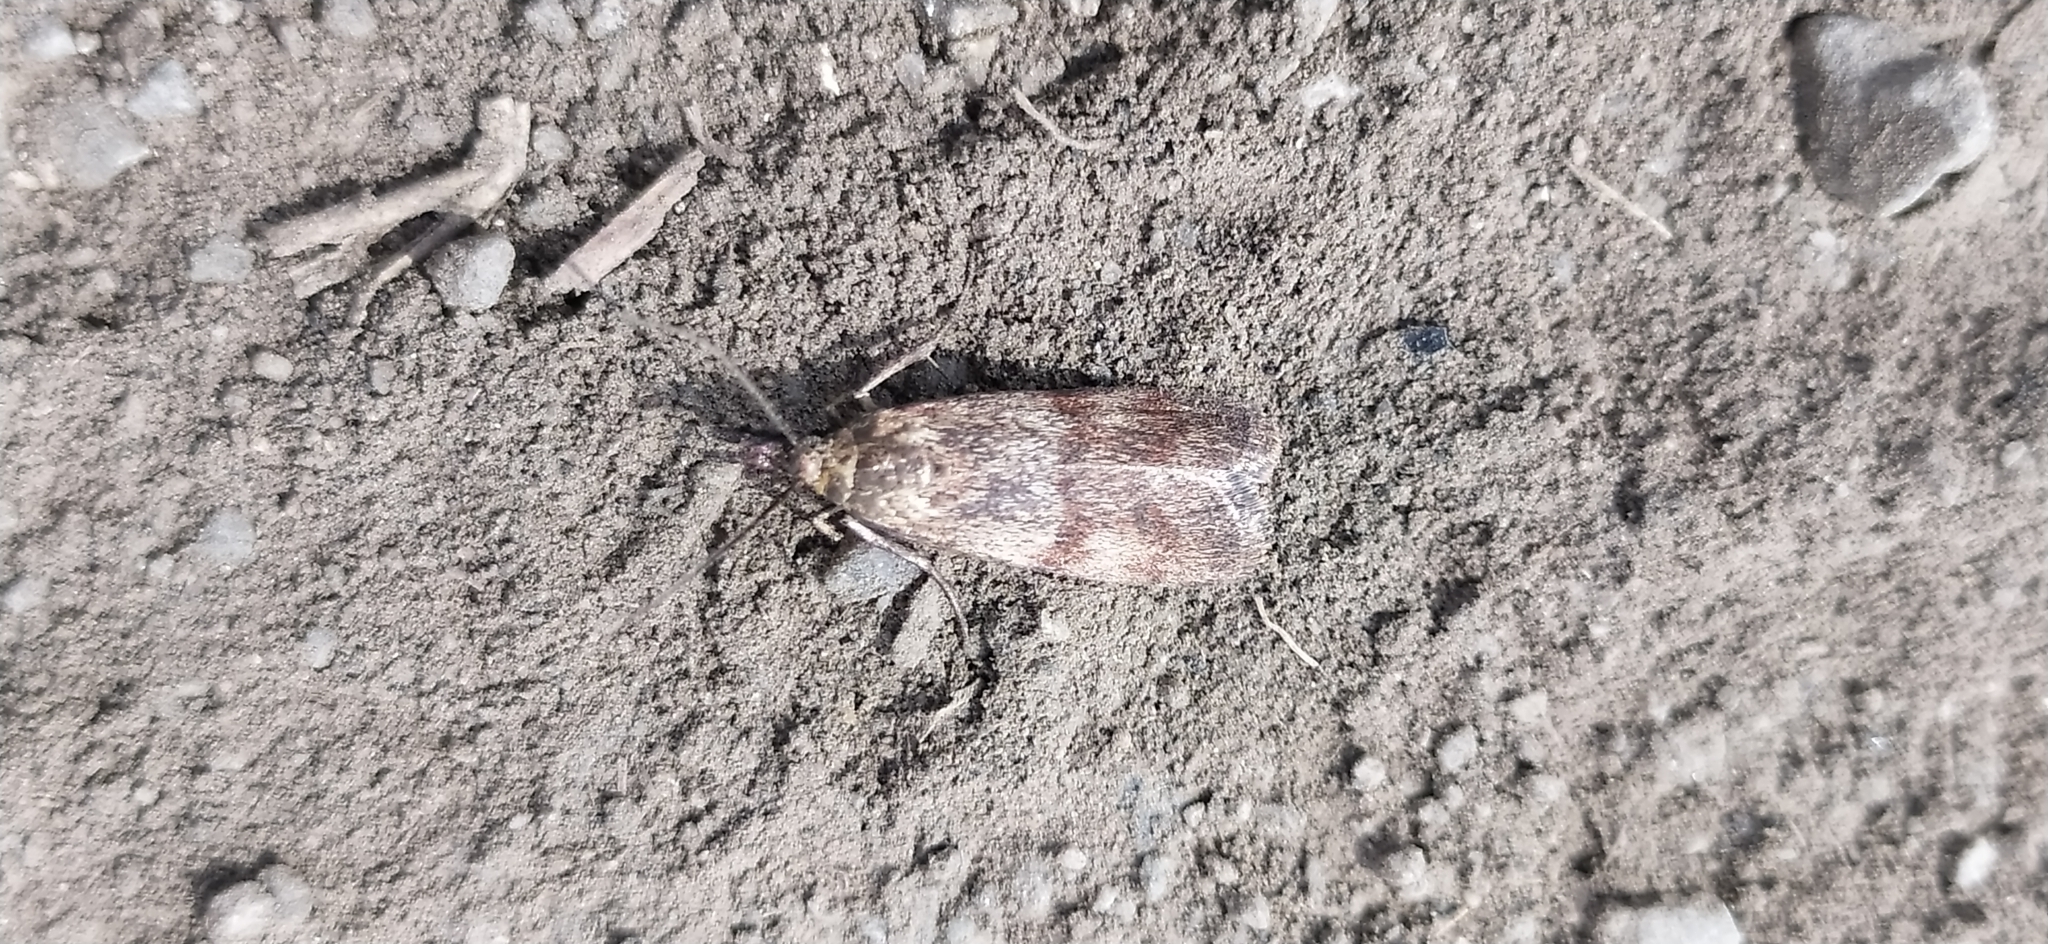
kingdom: Animalia
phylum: Arthropoda
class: Insecta
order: Lepidoptera
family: Pyralidae
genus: Hypochalcia
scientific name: Hypochalcia ahenella
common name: Dingy knot-horn
